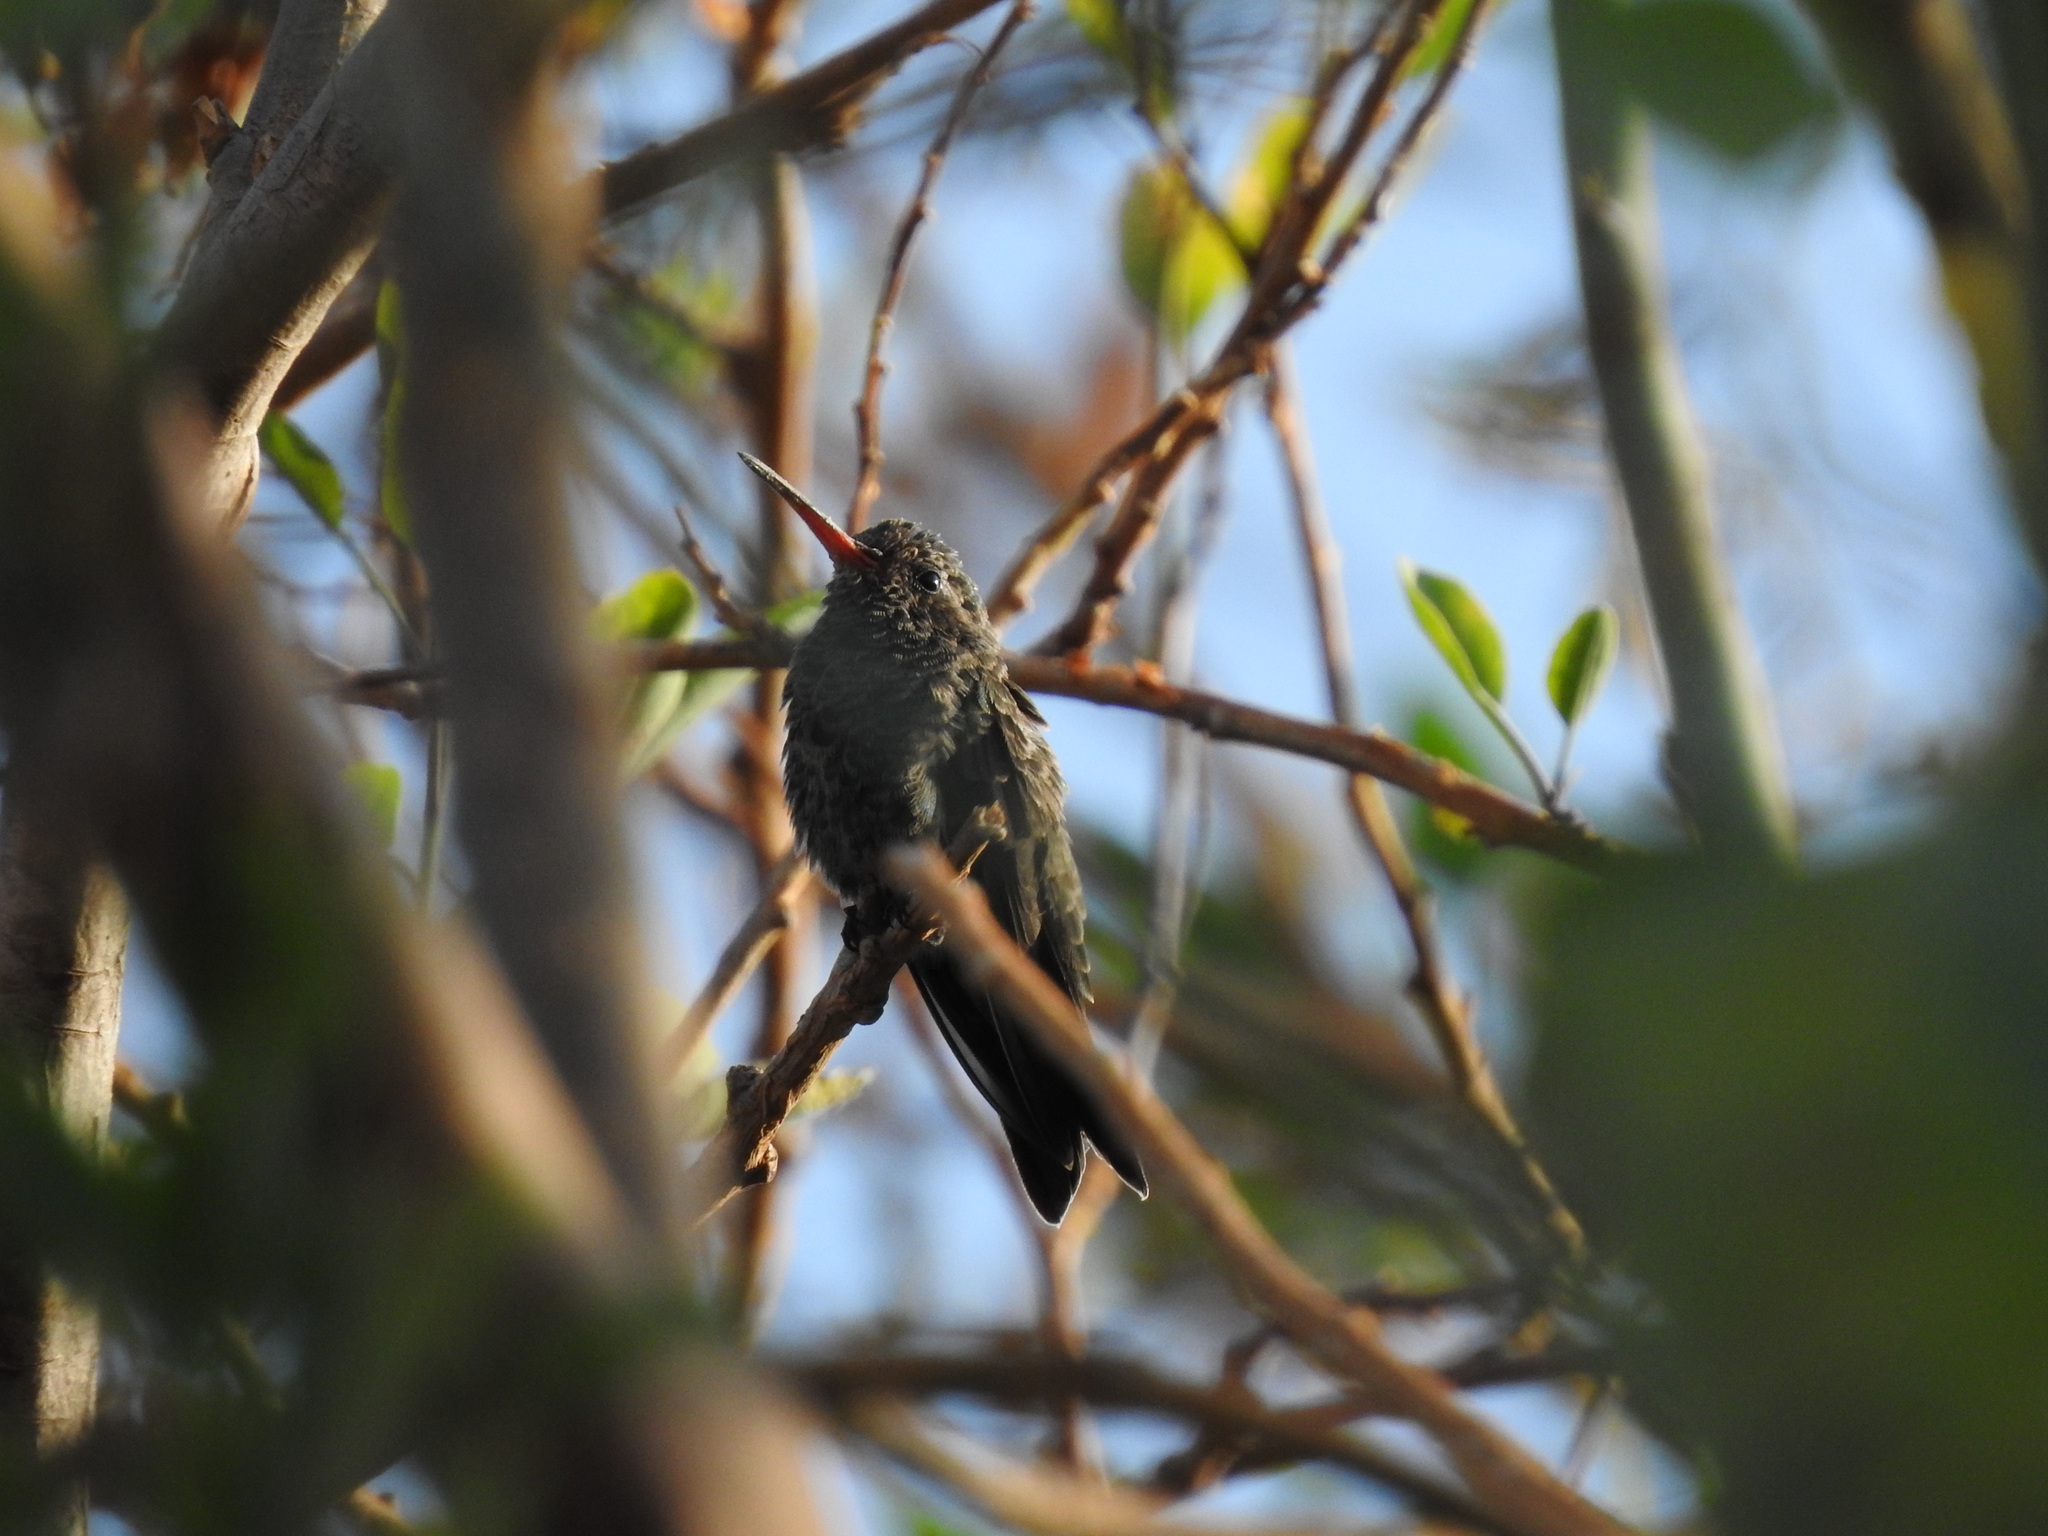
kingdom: Animalia
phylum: Chordata
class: Aves
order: Apodiformes
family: Trochilidae
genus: Cynanthus
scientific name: Cynanthus latirostris
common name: Broad-billed hummingbird
